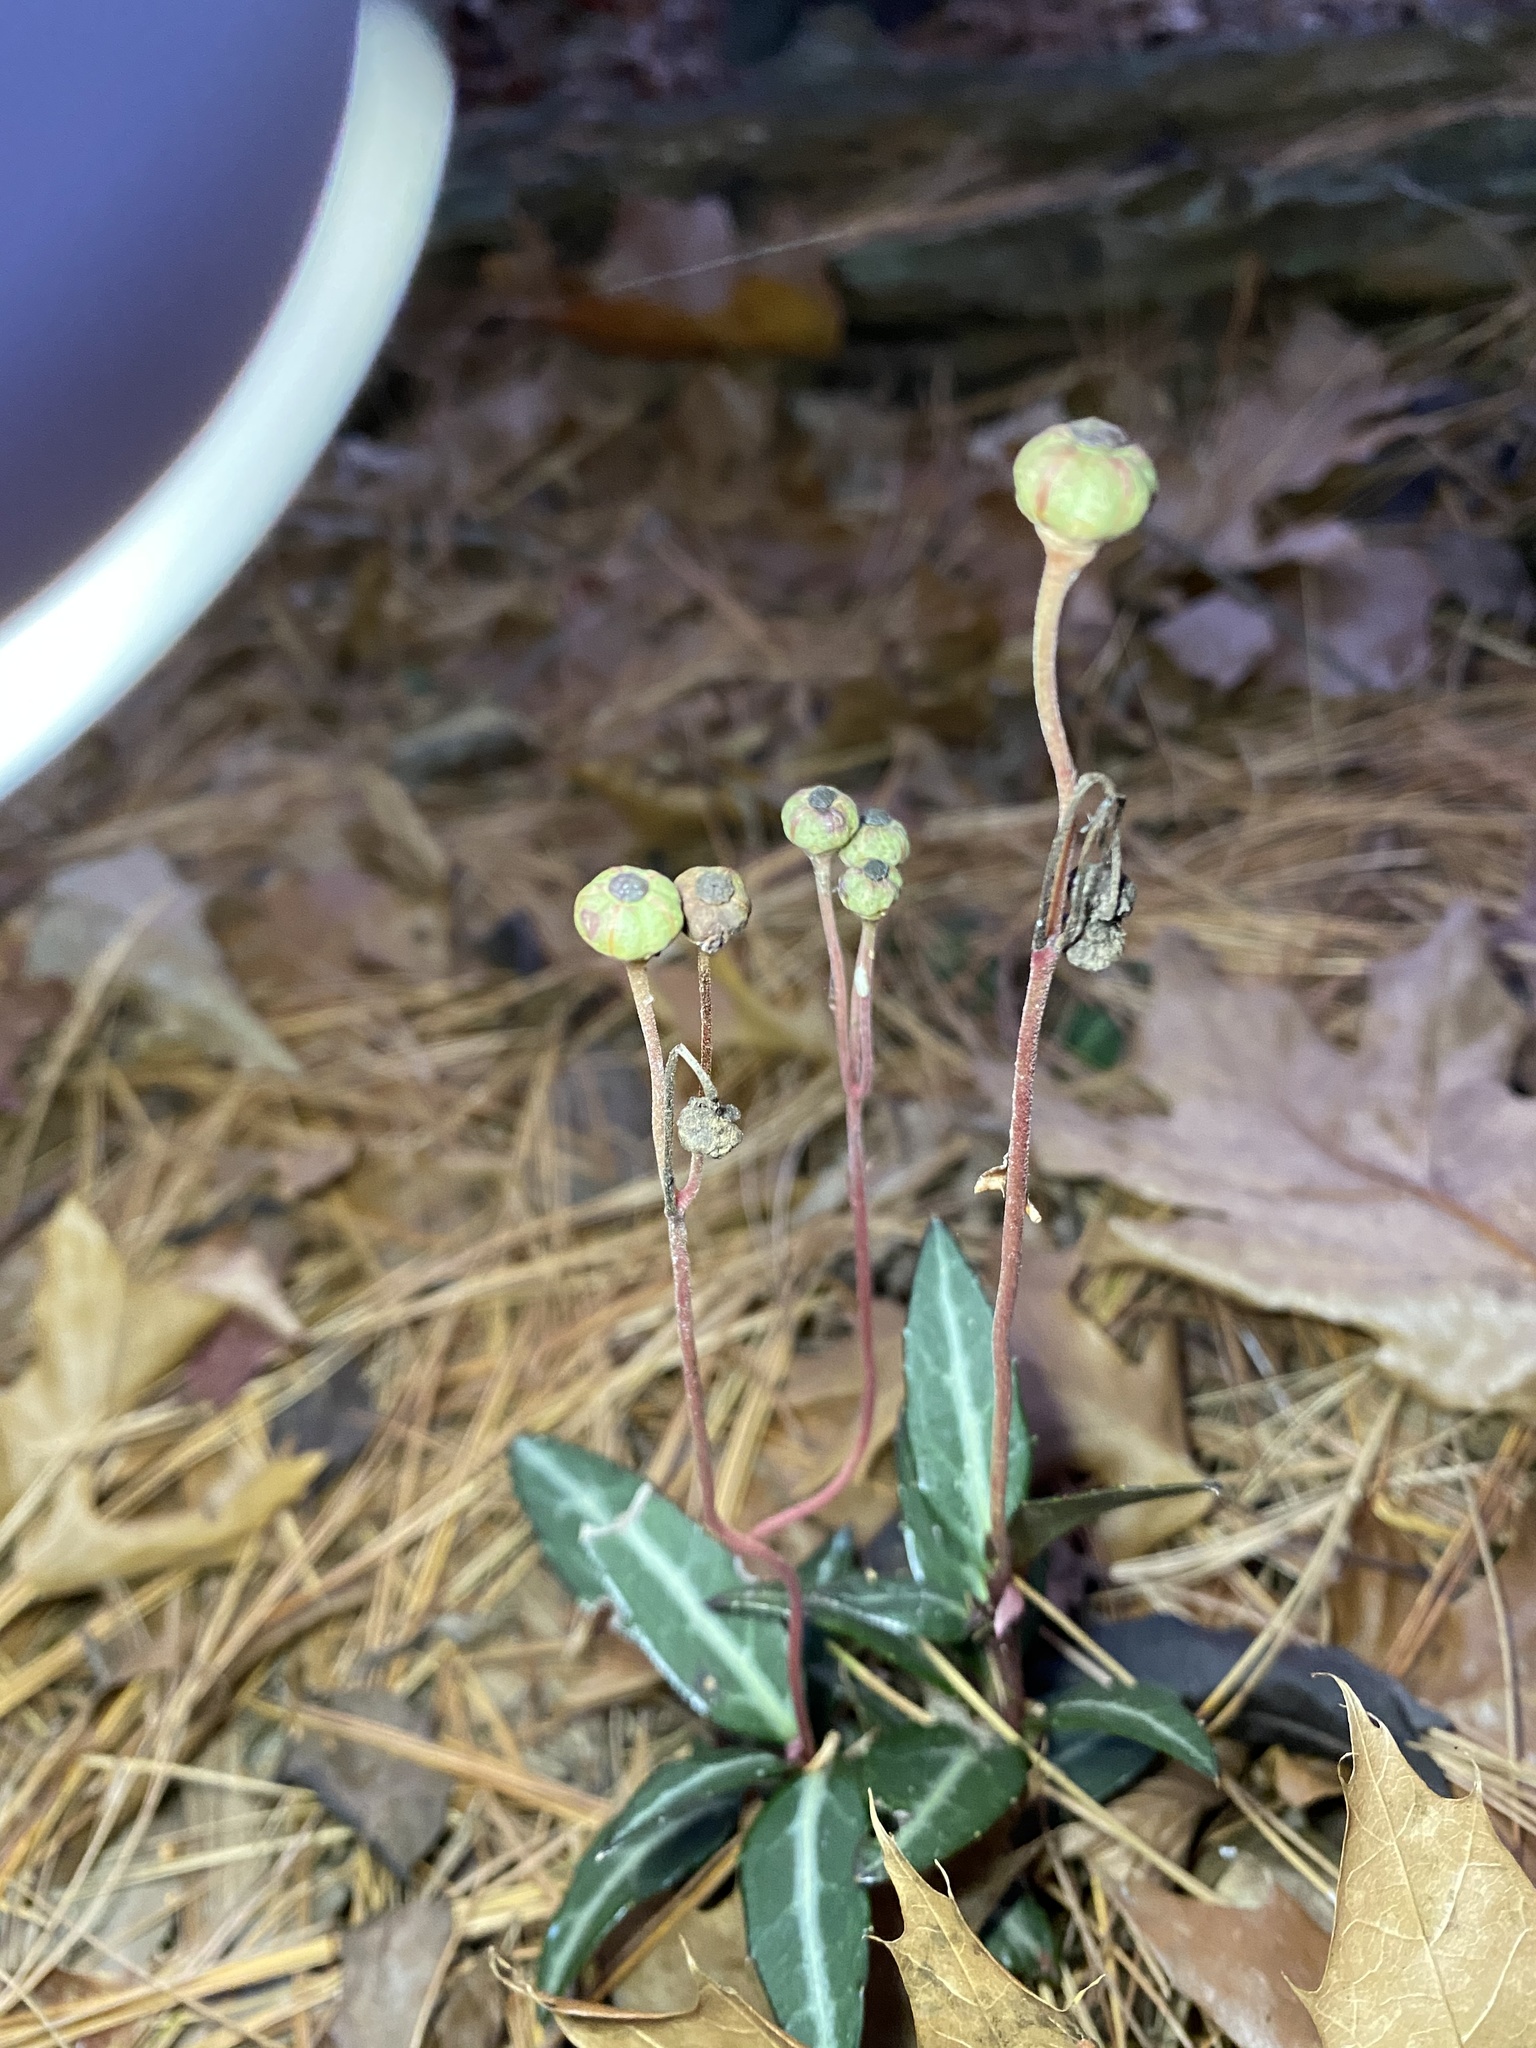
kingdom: Plantae
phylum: Tracheophyta
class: Magnoliopsida
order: Ericales
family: Ericaceae
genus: Chimaphila
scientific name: Chimaphila maculata
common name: Spotted pipsissewa
